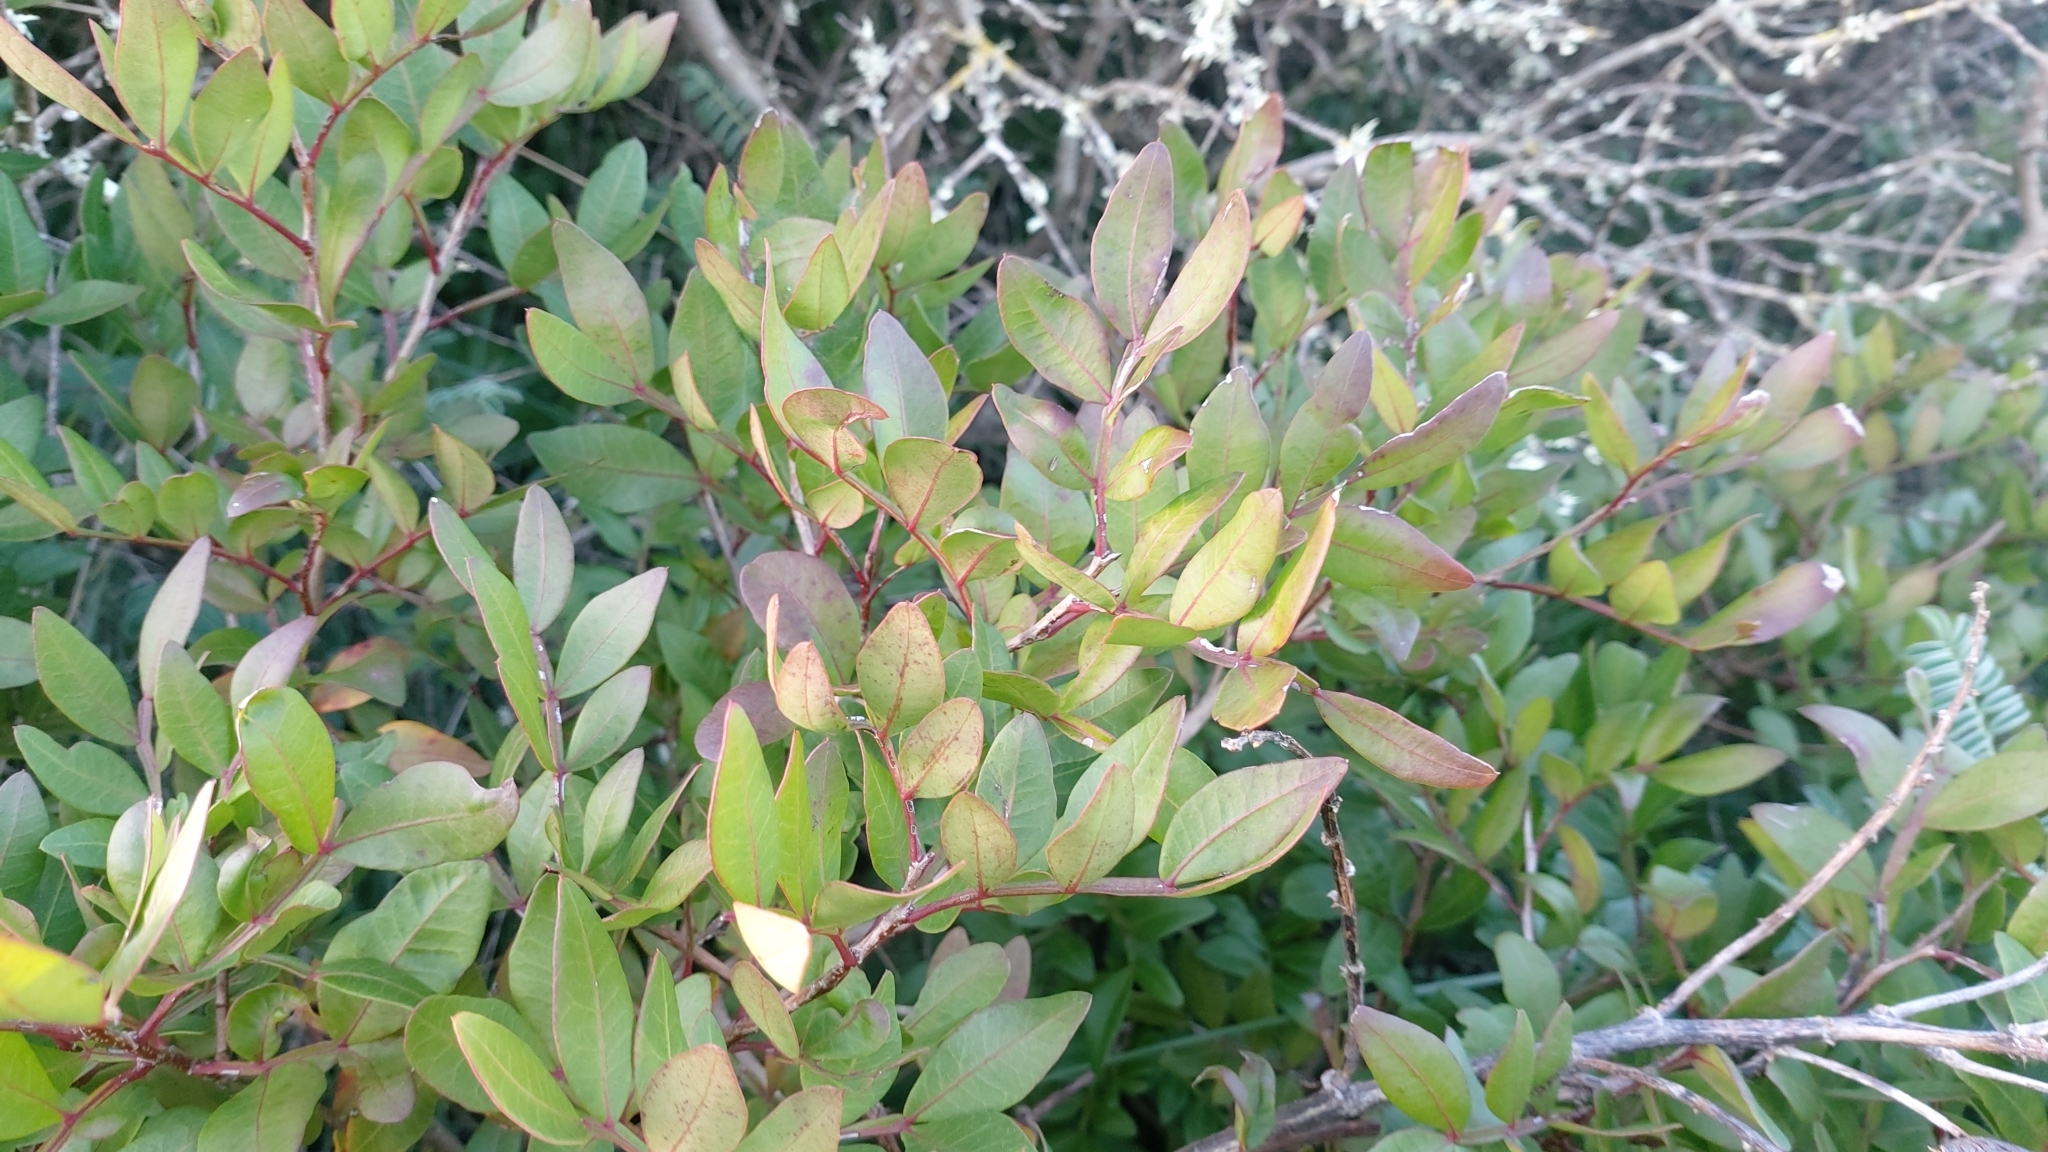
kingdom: Plantae
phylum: Tracheophyta
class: Magnoliopsida
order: Sapindales
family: Anacardiaceae
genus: Pistacia
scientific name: Pistacia lentiscus
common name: Lentisk
